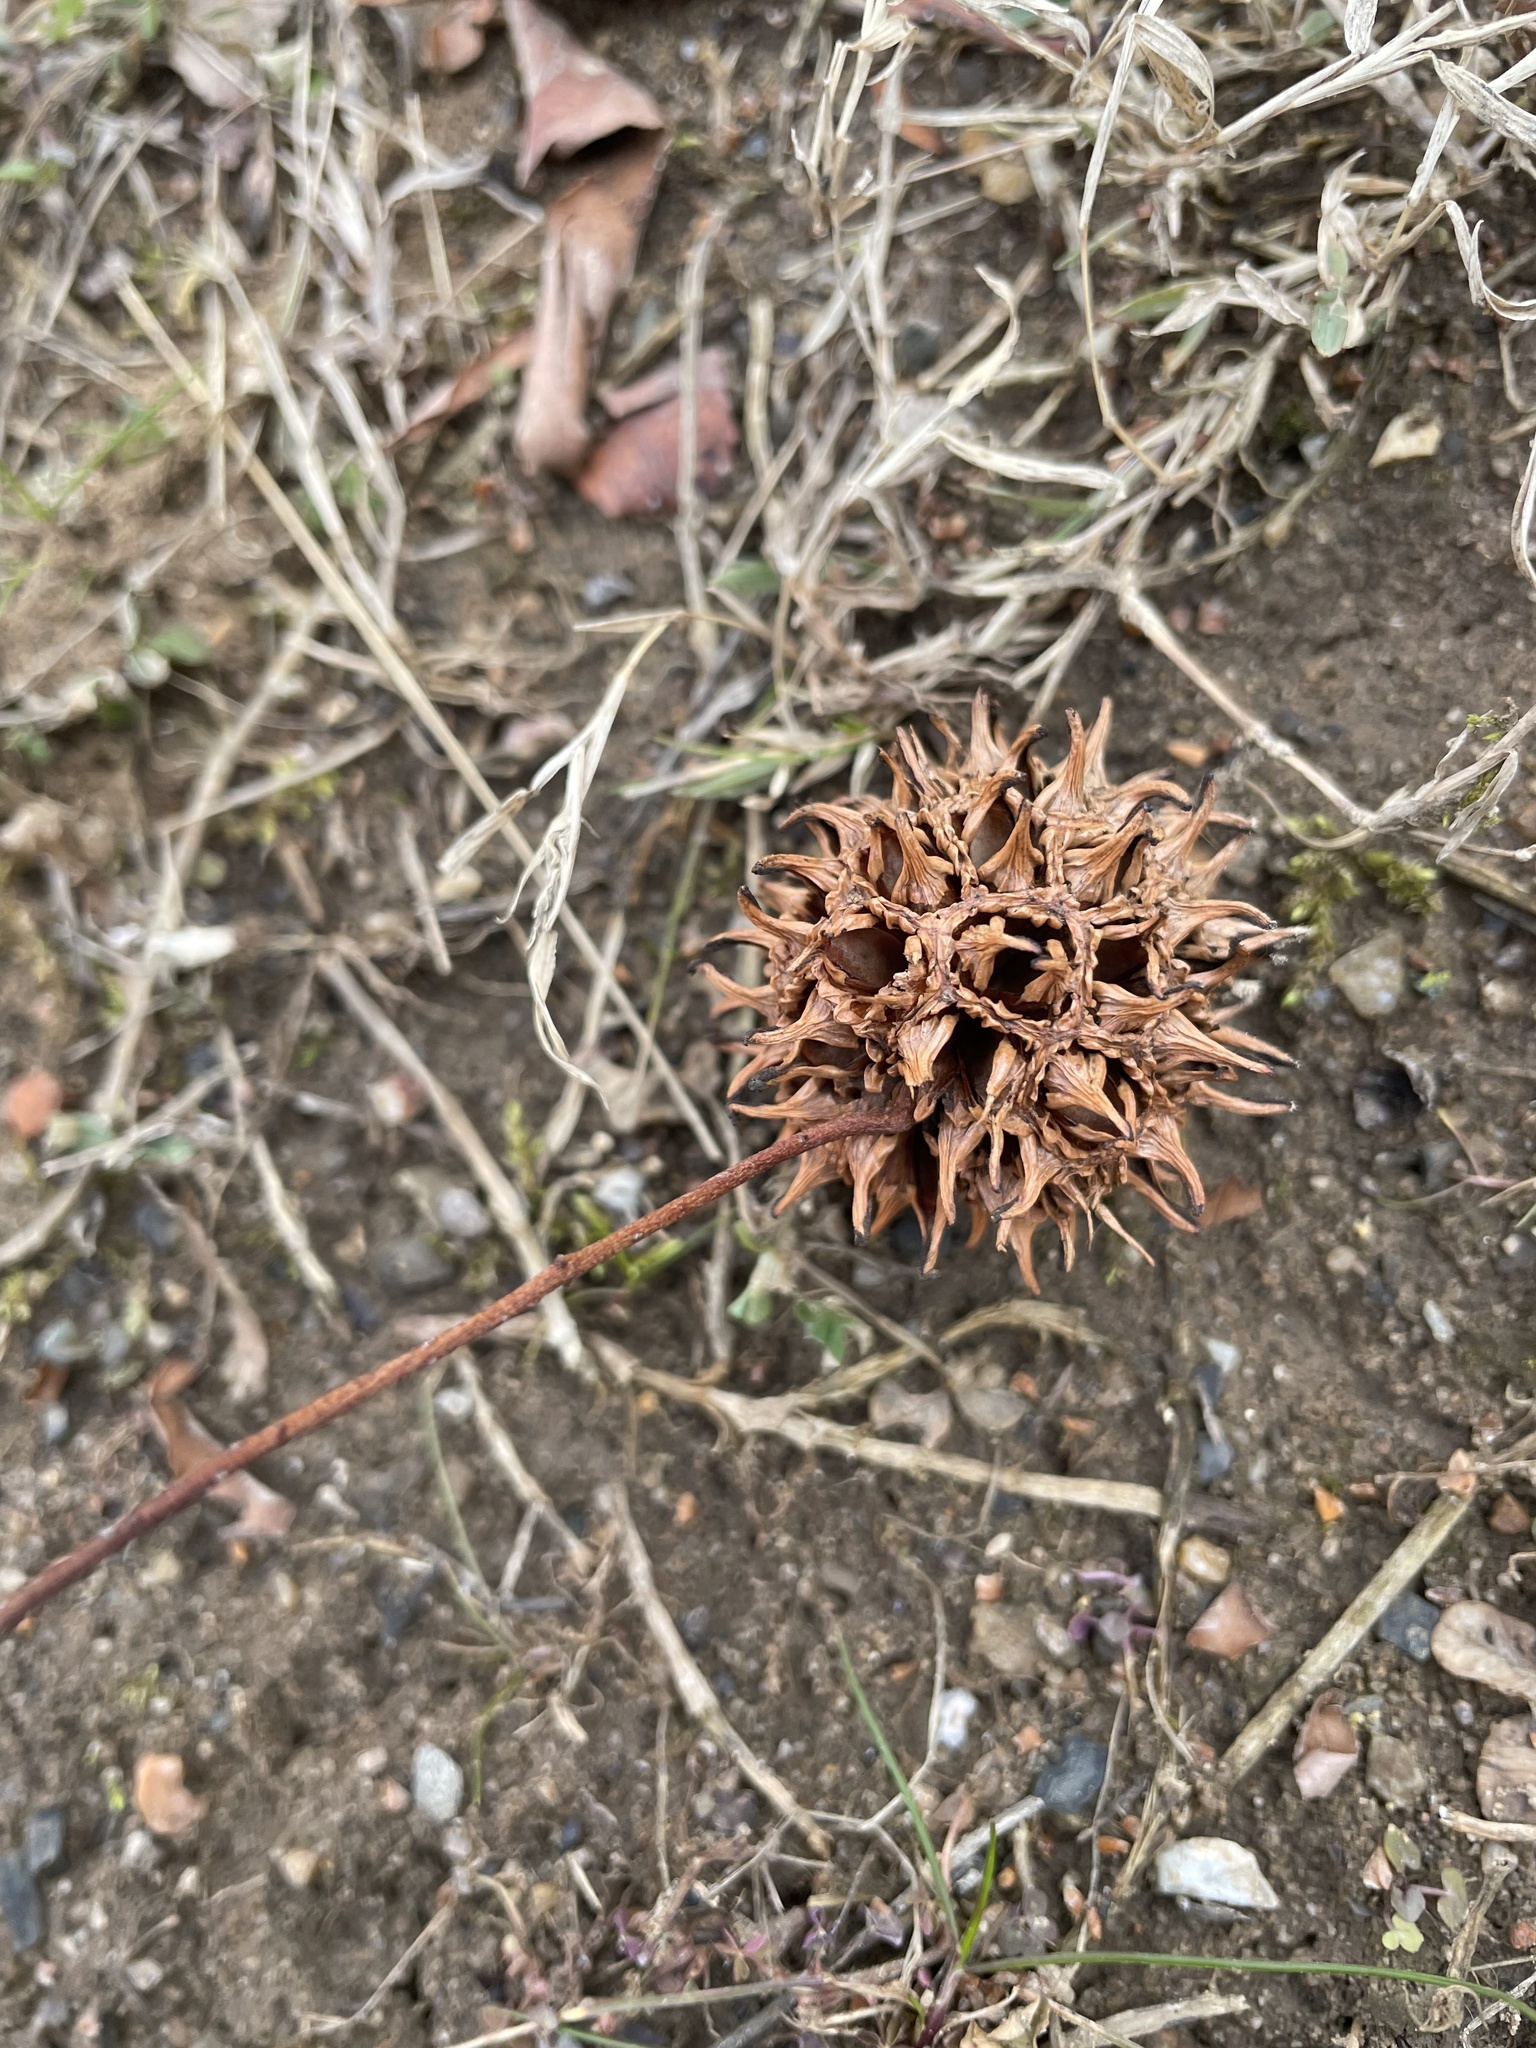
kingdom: Plantae
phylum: Tracheophyta
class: Magnoliopsida
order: Saxifragales
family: Altingiaceae
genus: Liquidambar
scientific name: Liquidambar styraciflua
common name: Sweet gum
